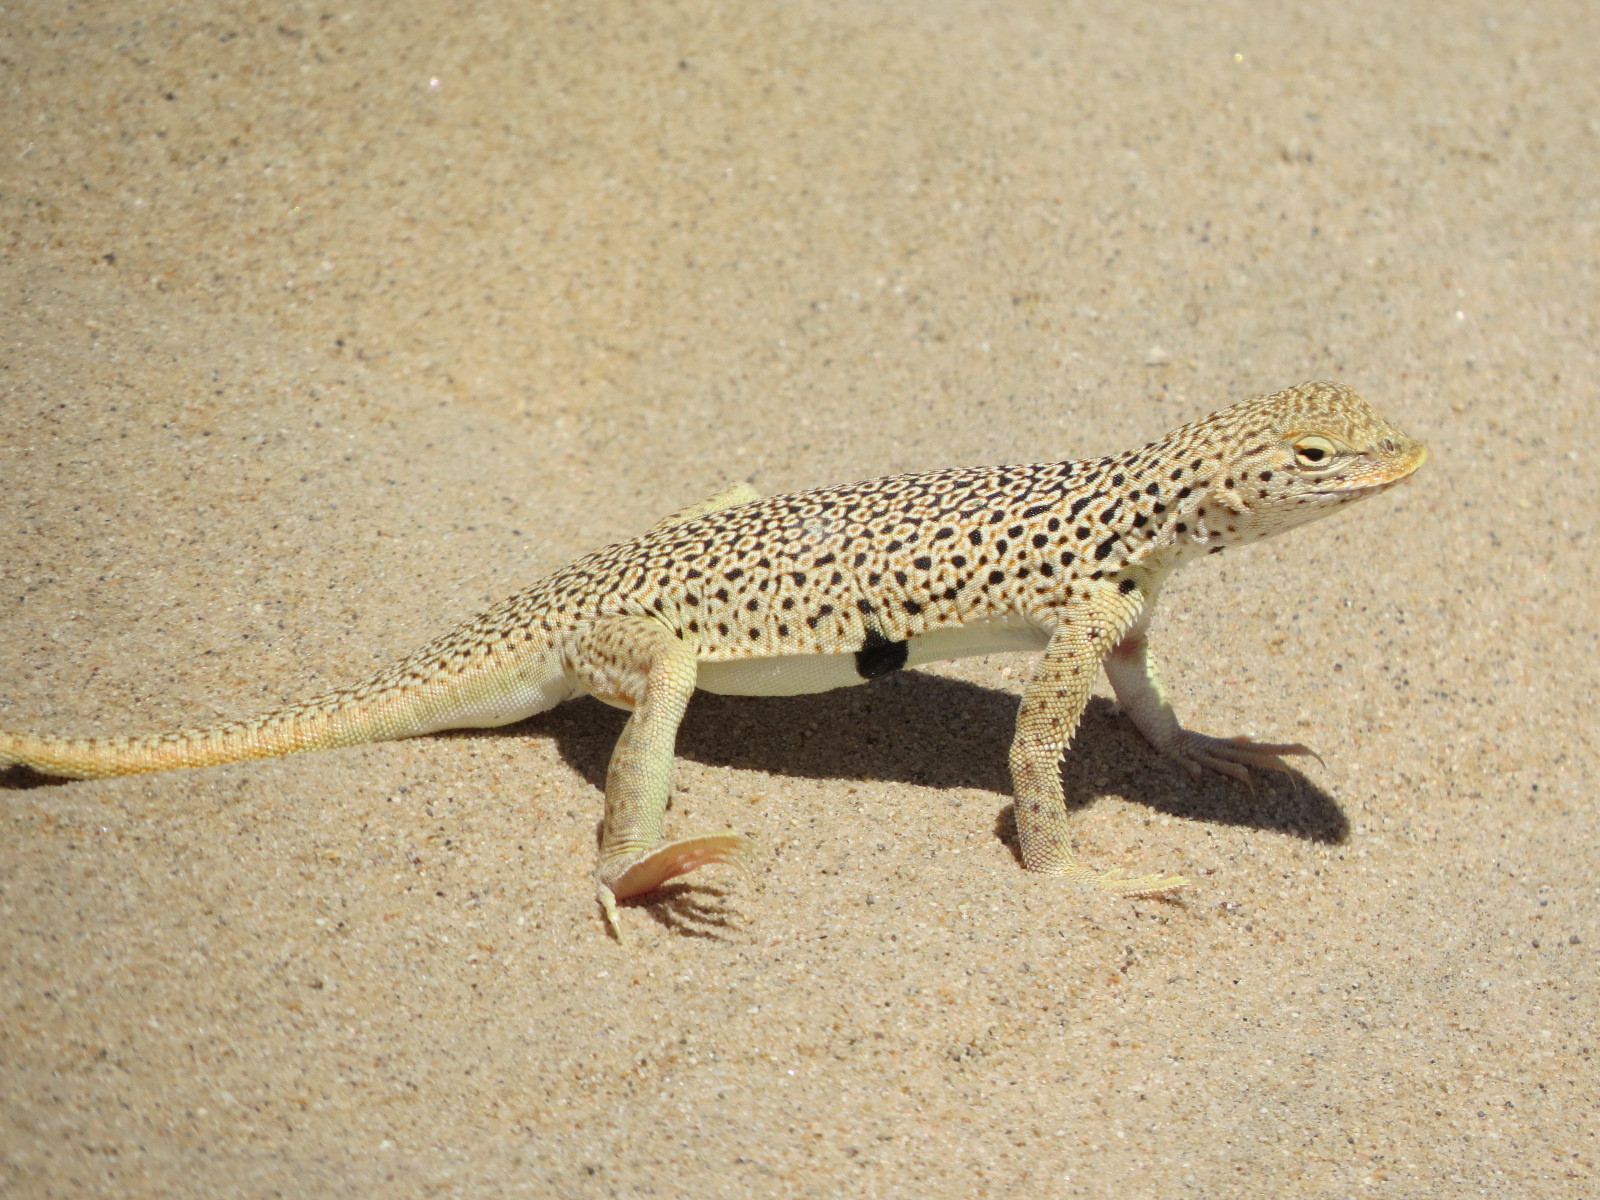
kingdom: Animalia
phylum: Chordata
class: Squamata
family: Phrynosomatidae
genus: Uma
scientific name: Uma scoparia
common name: Mojave fringe-toed lizard
